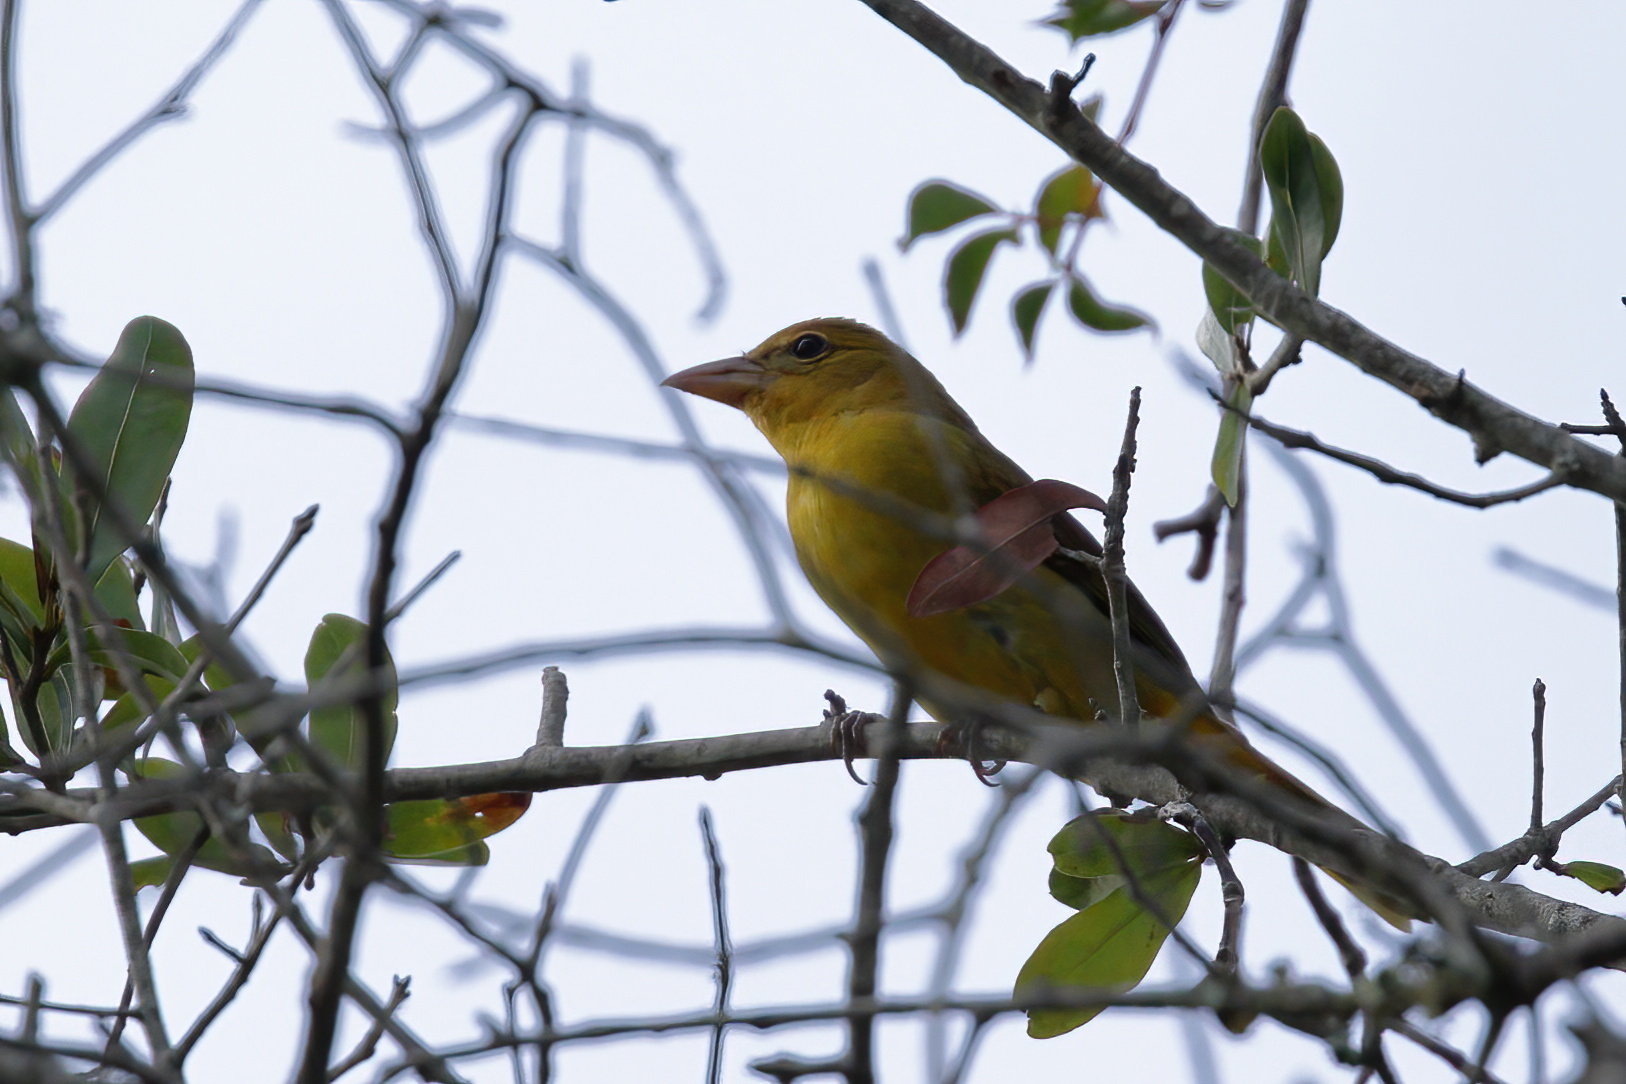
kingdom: Animalia
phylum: Chordata
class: Aves
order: Passeriformes
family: Cardinalidae
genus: Piranga
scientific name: Piranga rubra
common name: Summer tanager
